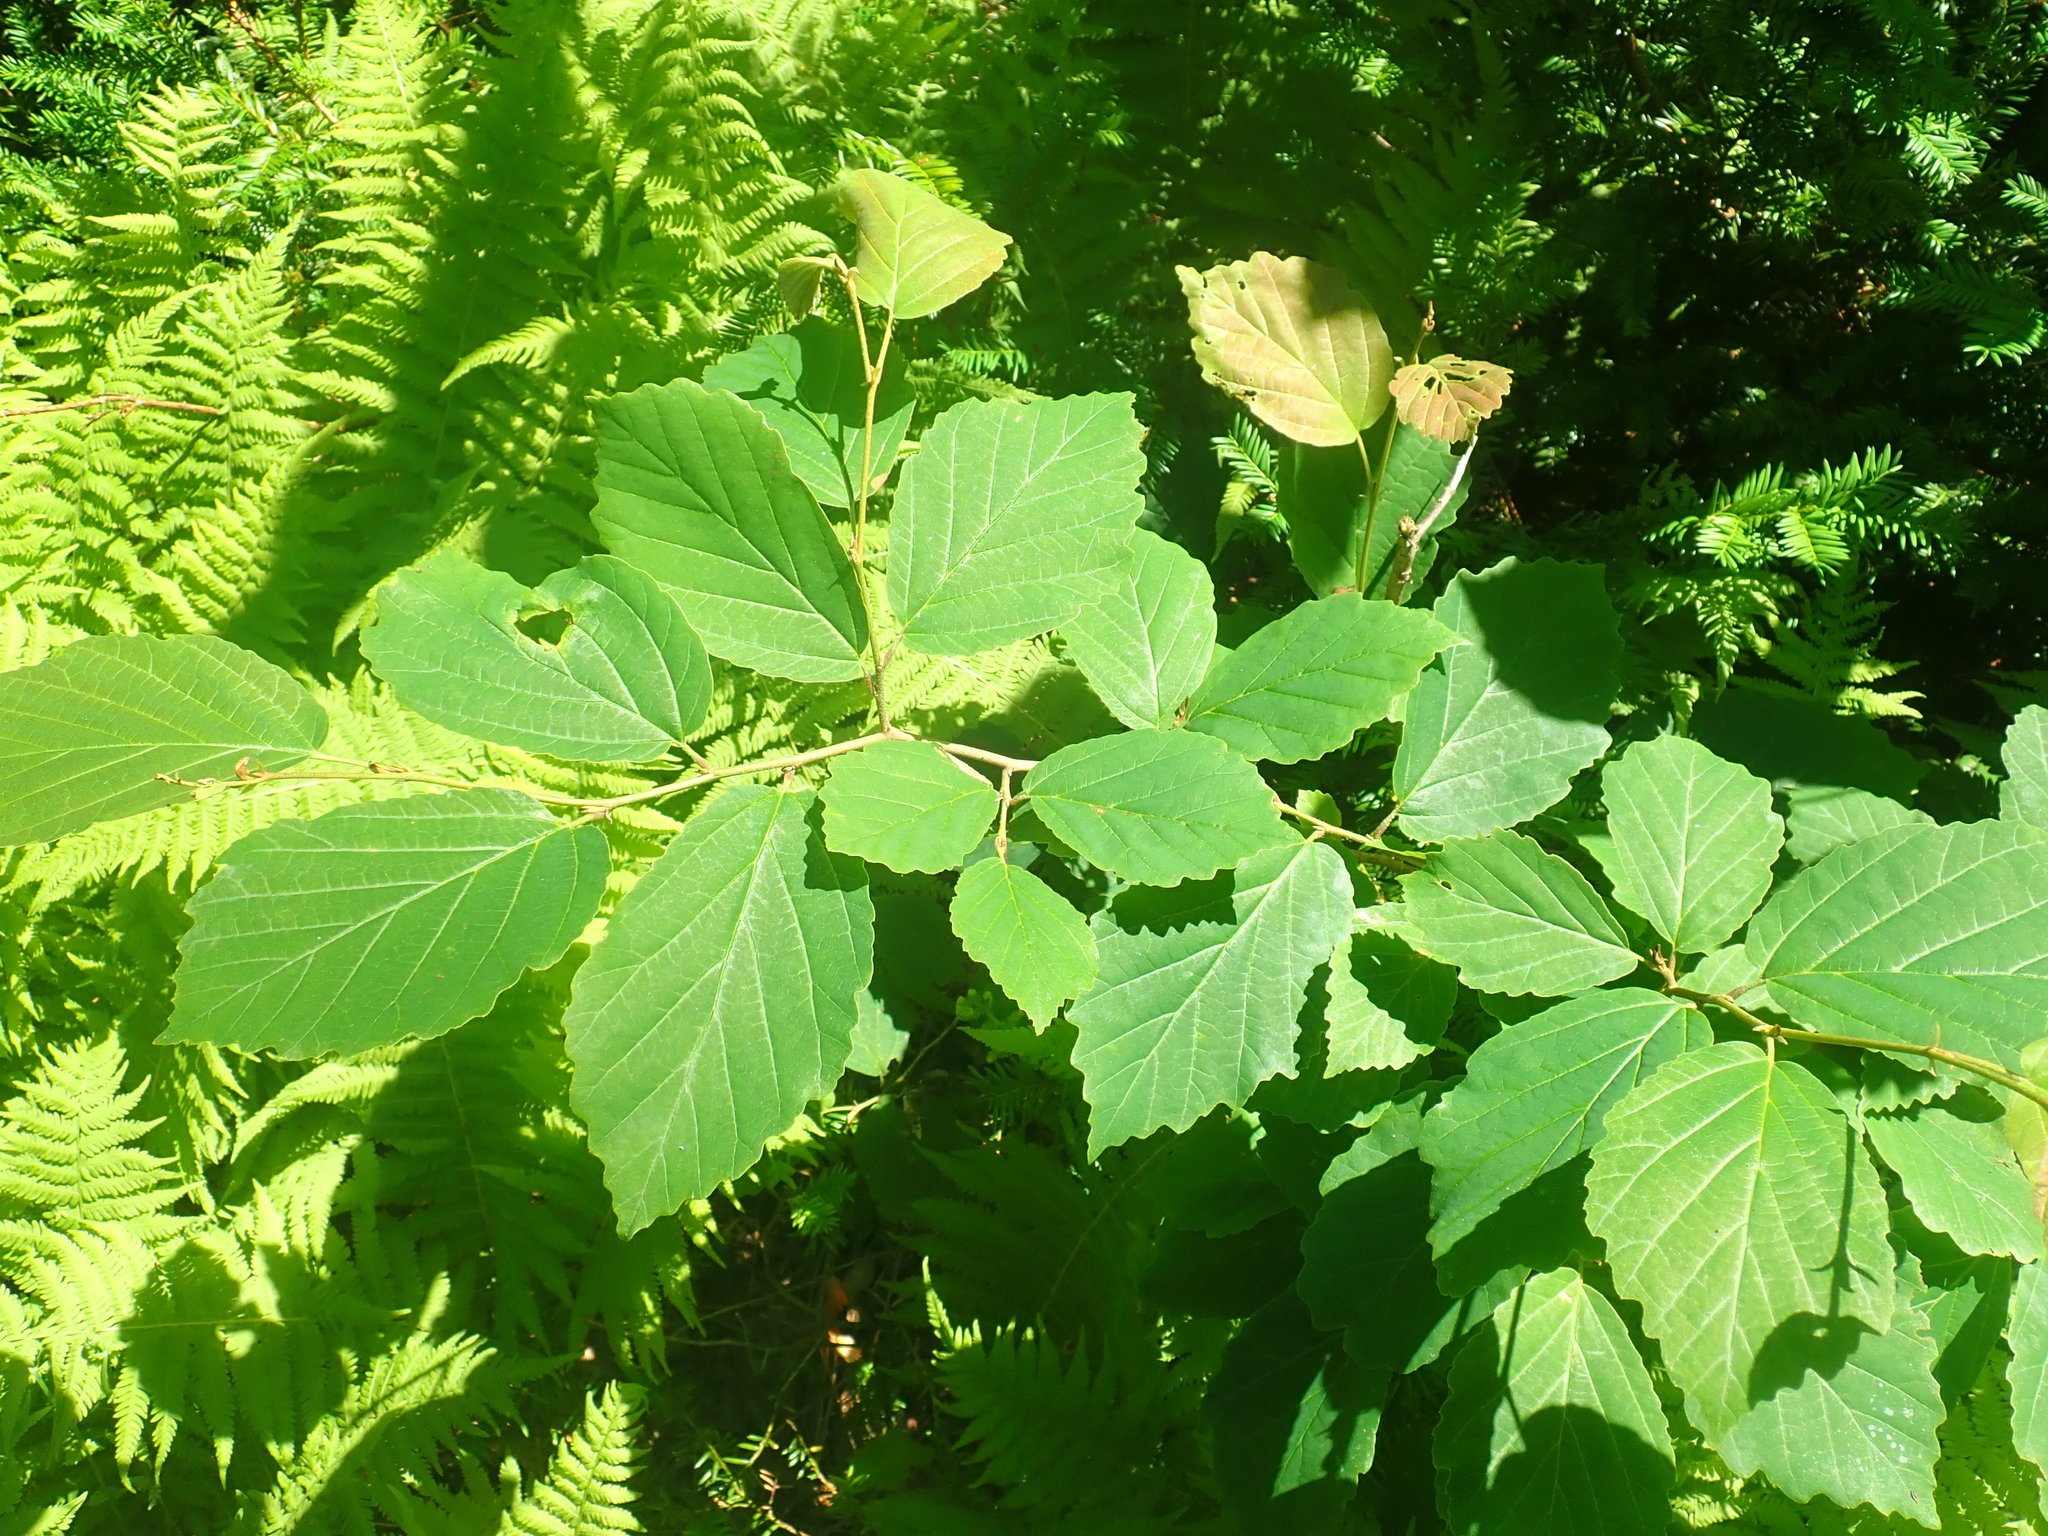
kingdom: Plantae
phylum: Tracheophyta
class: Magnoliopsida
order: Saxifragales
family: Hamamelidaceae
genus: Hamamelis
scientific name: Hamamelis virginiana
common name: Witch-hazel
